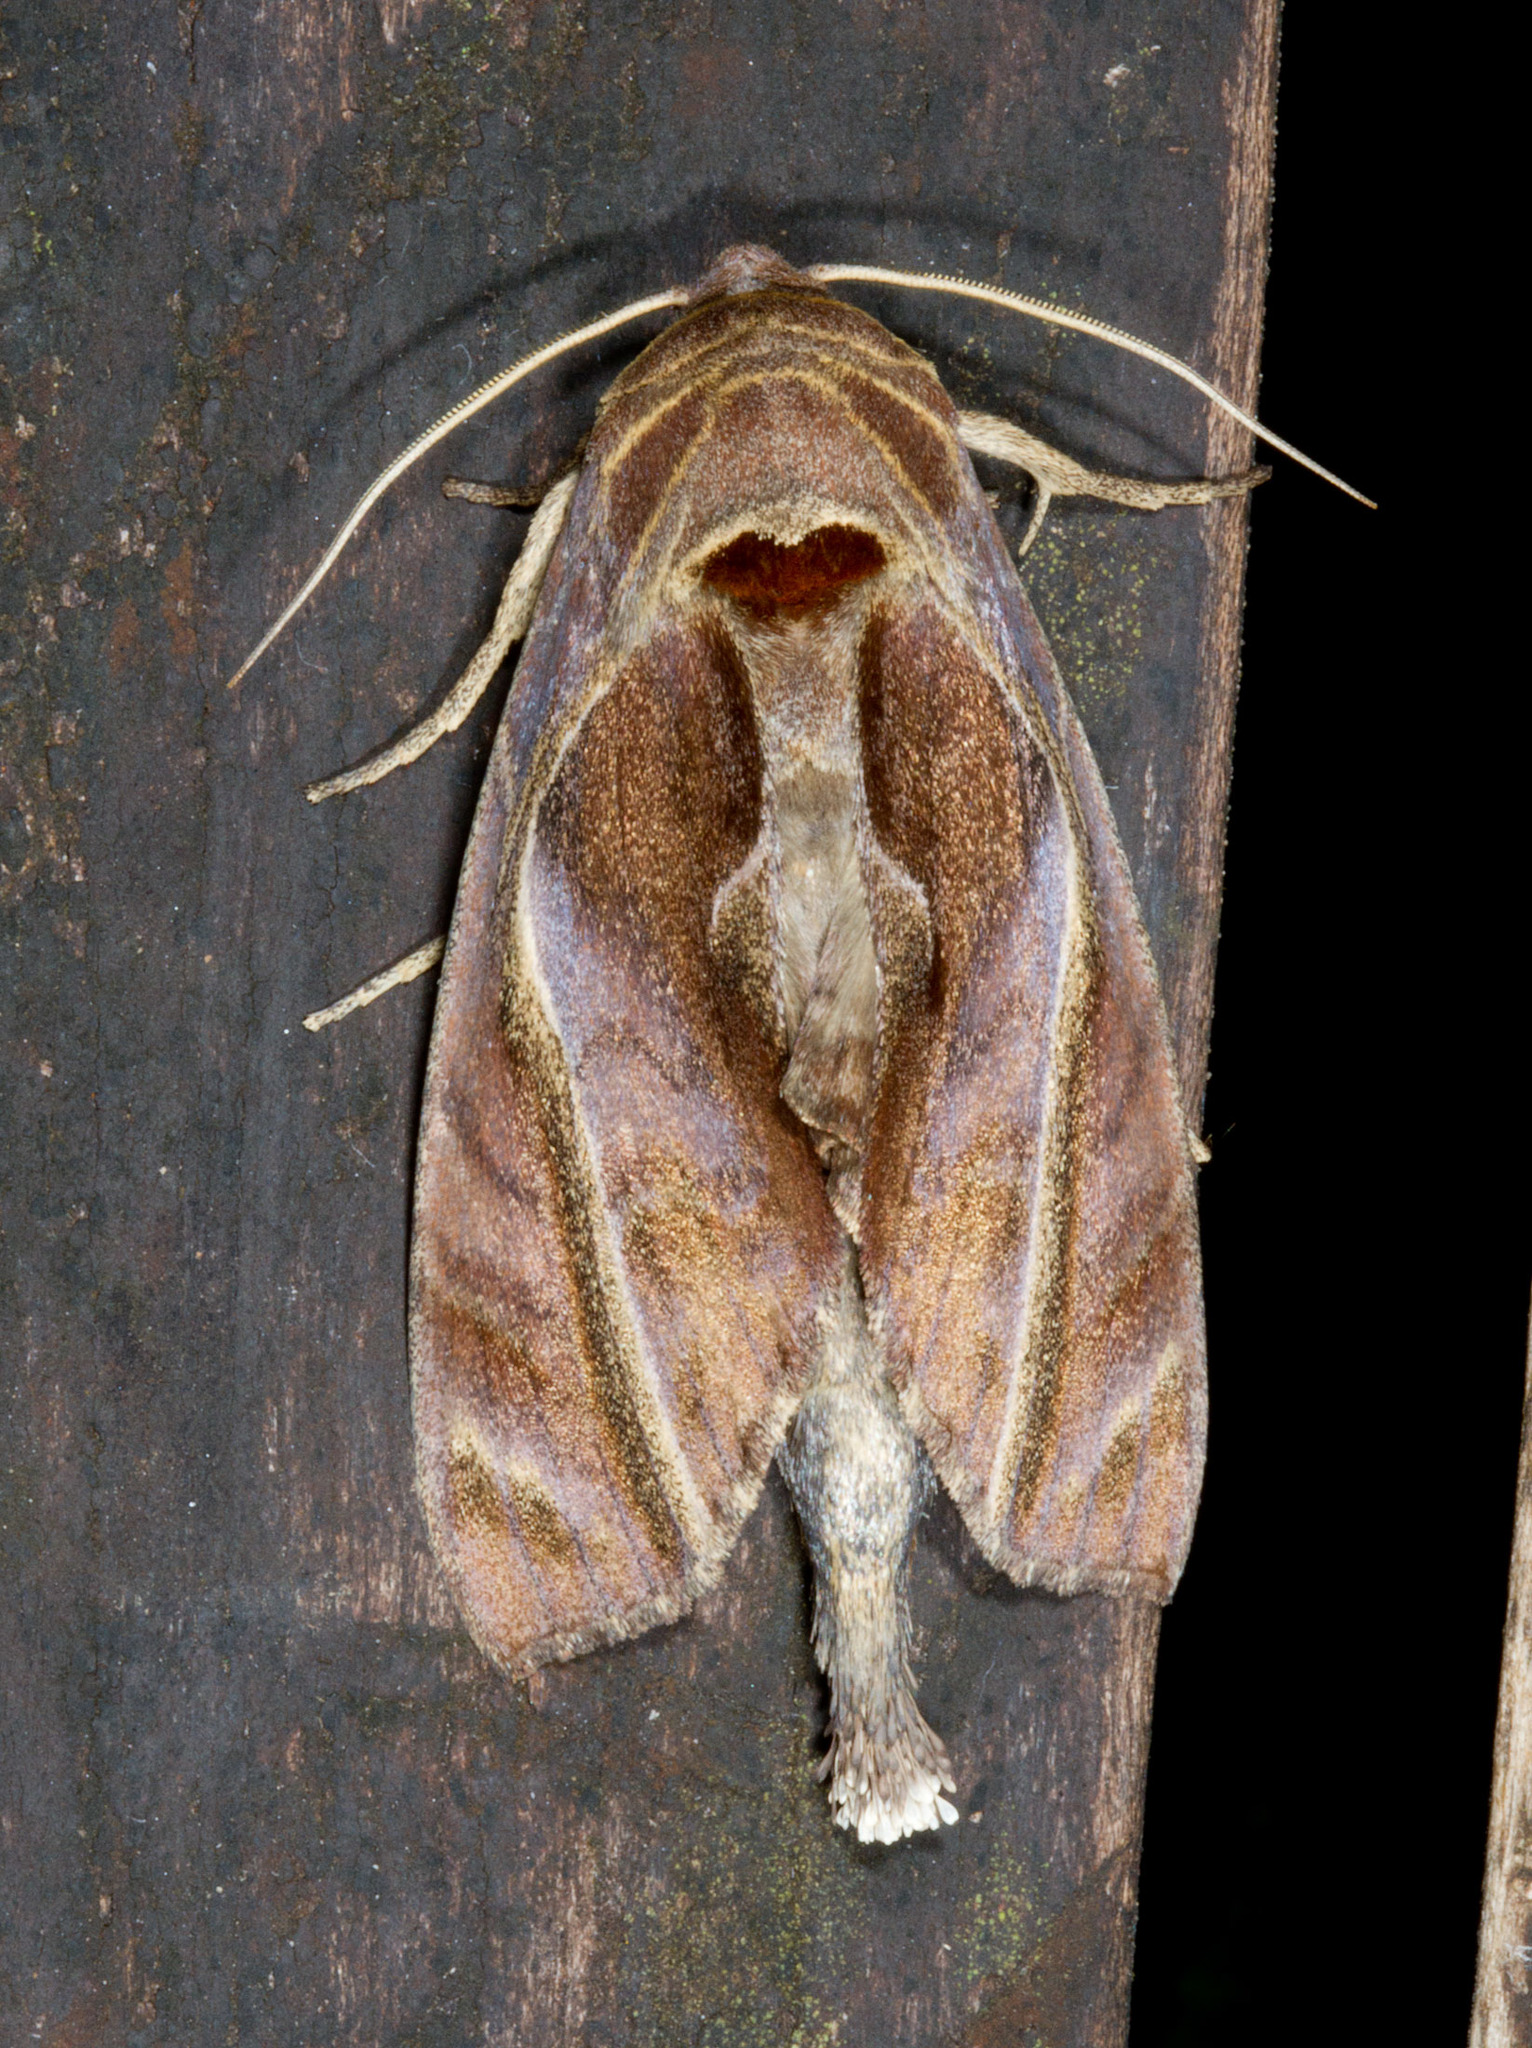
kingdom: Animalia
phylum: Arthropoda
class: Insecta
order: Lepidoptera
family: Notodontidae
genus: Crinodes
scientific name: Crinodes besckei
